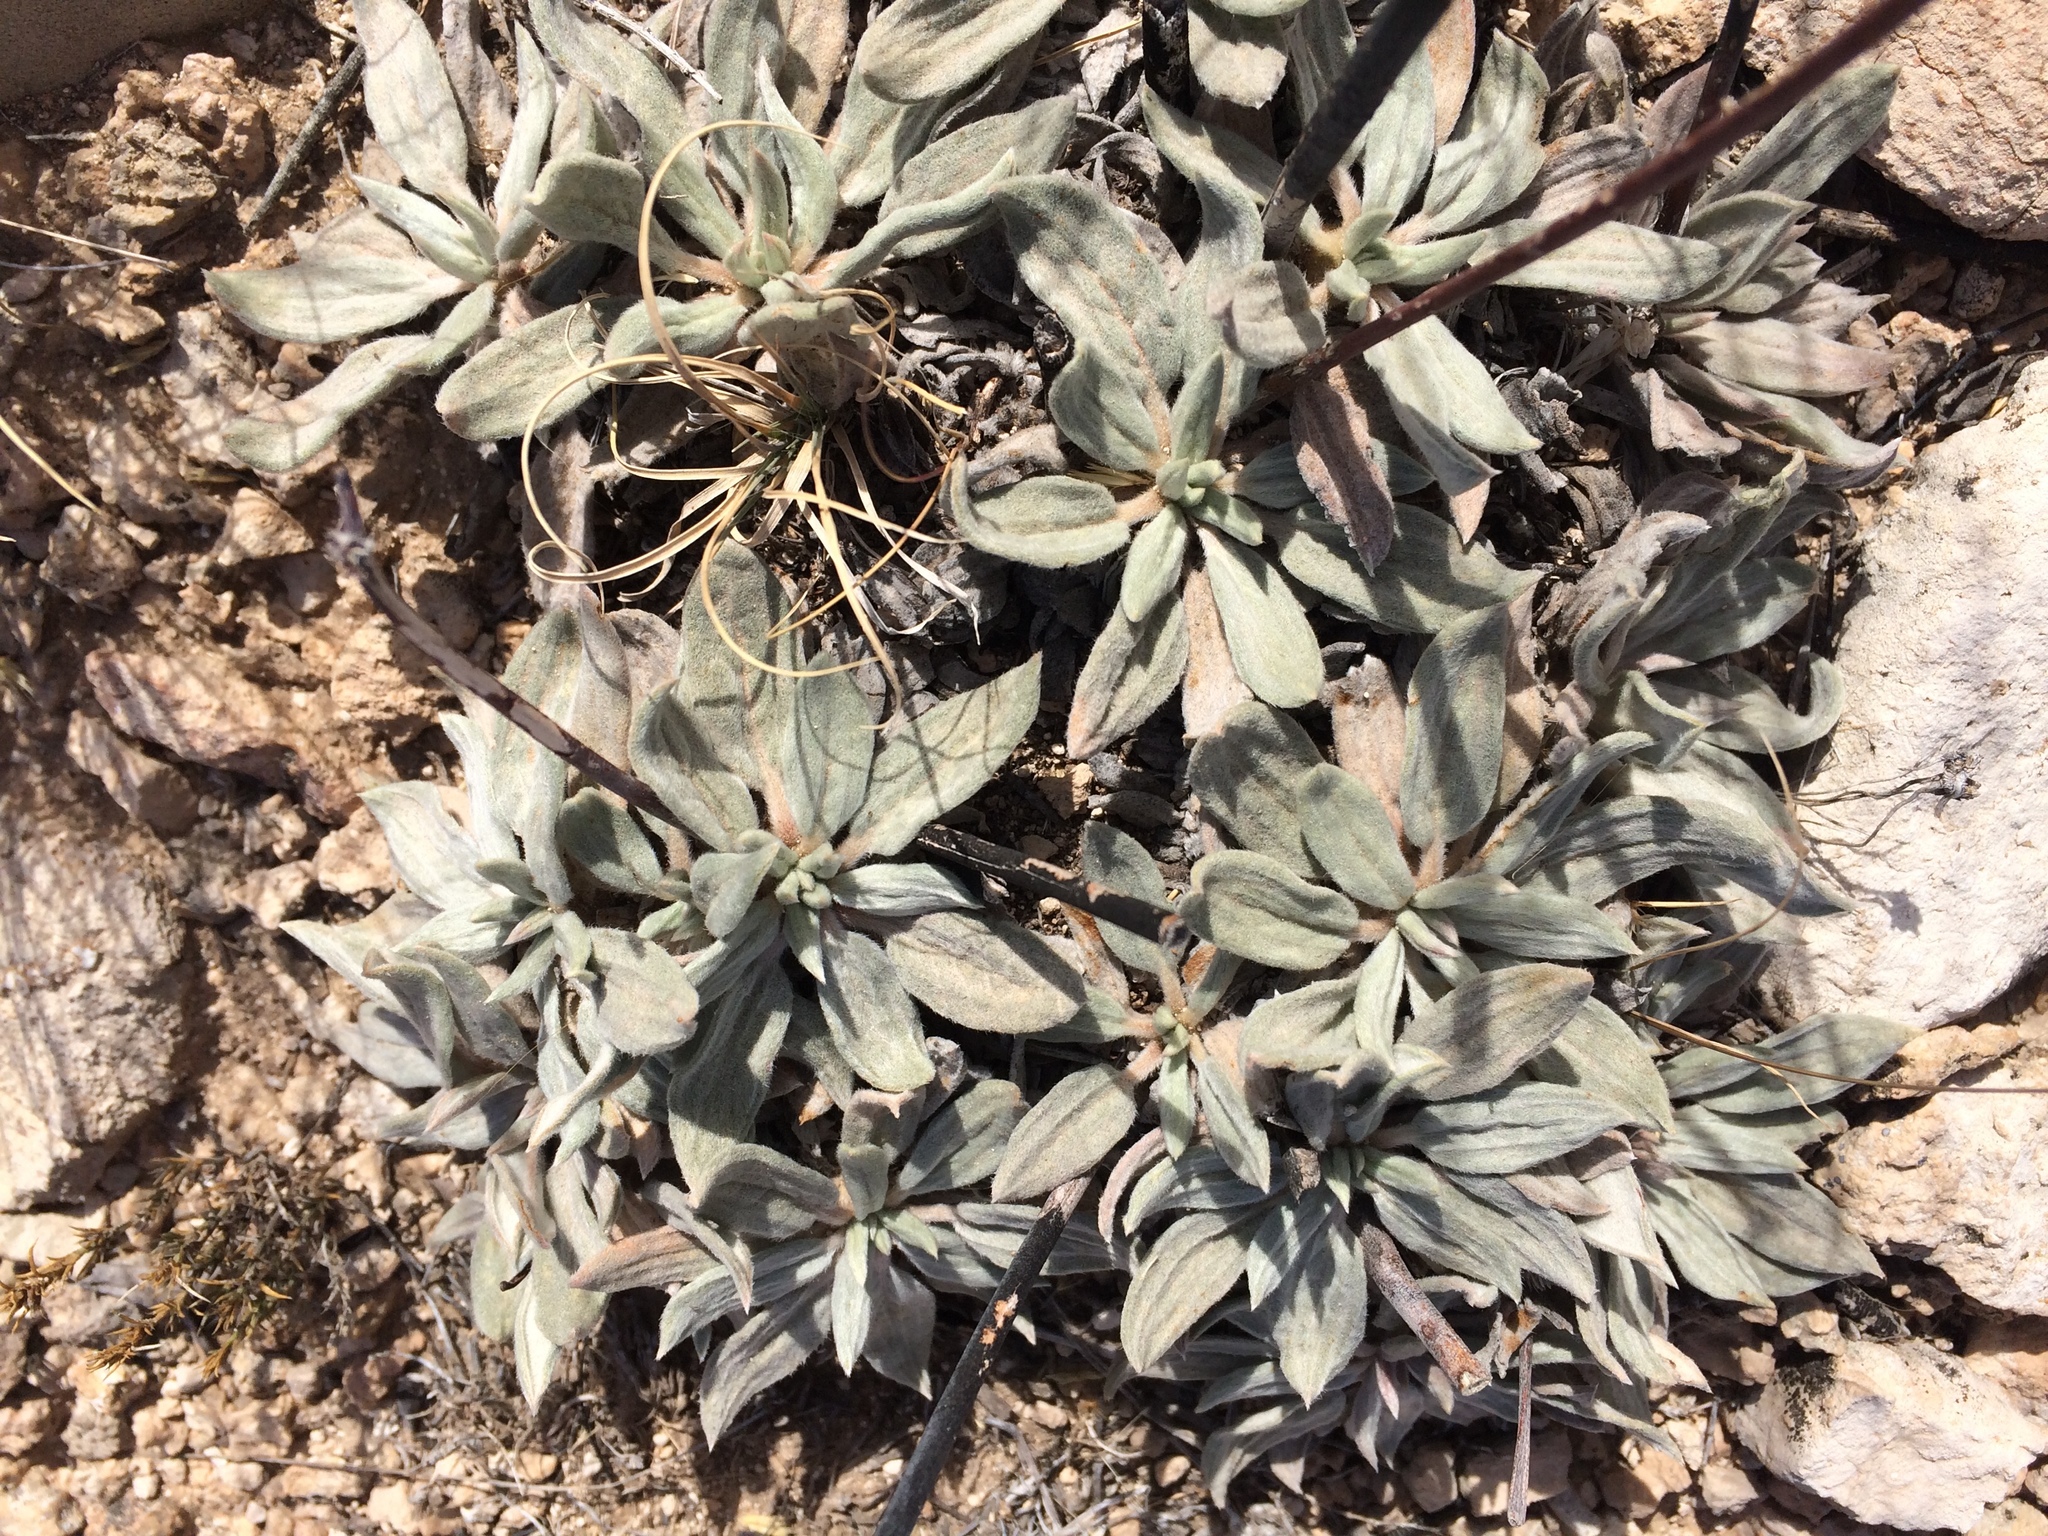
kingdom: Plantae
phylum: Tracheophyta
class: Magnoliopsida
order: Caryophyllales
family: Polygonaceae
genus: Eriogonum
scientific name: Eriogonum havardii
